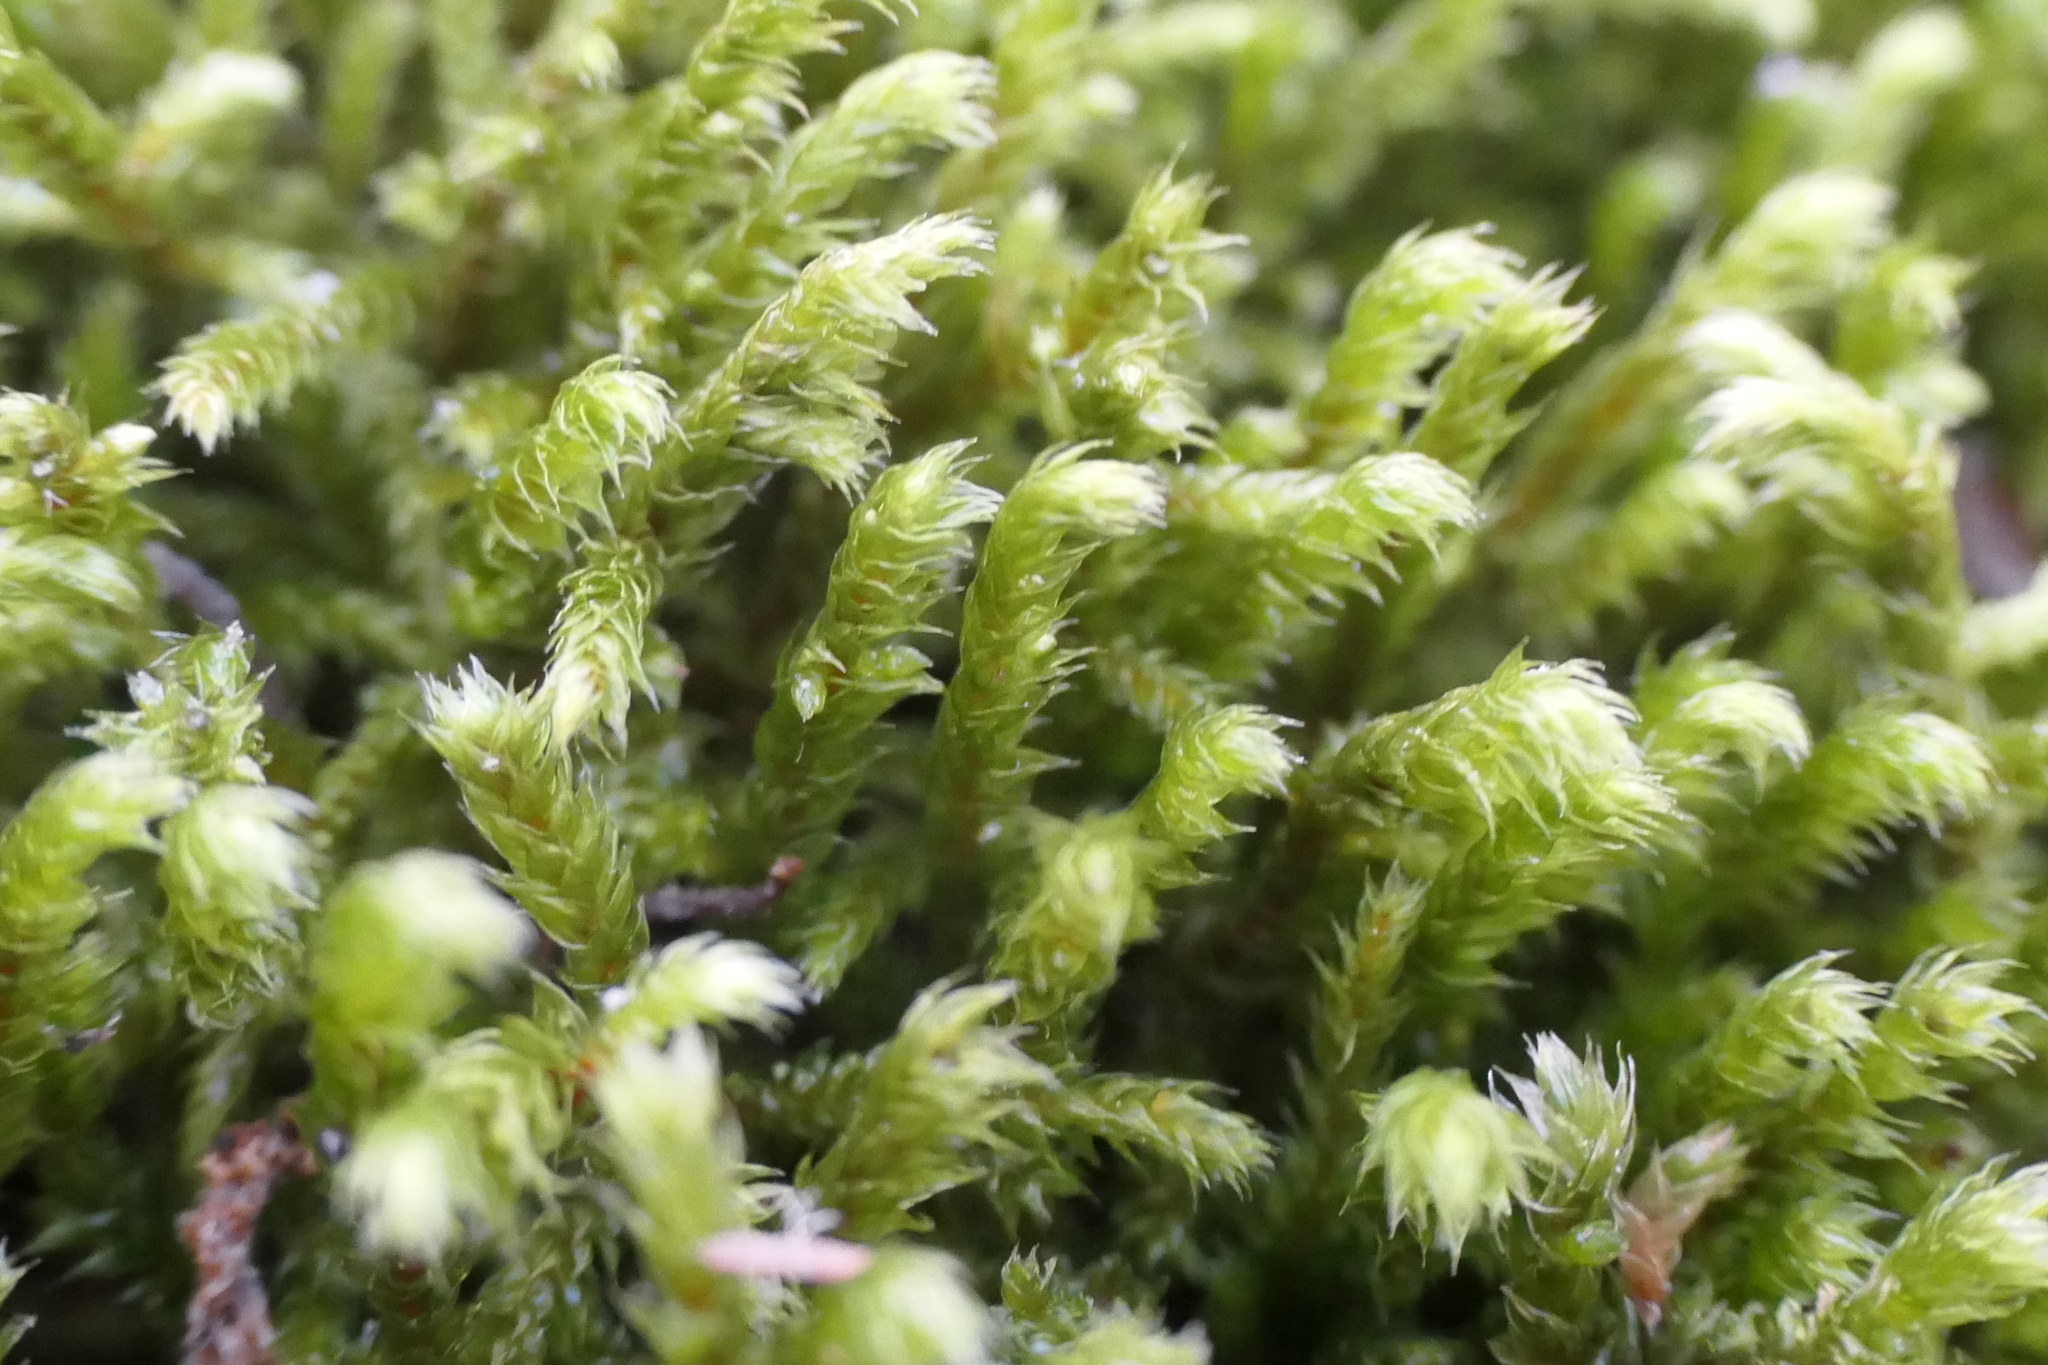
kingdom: Plantae
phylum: Bryophyta
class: Bryopsida
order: Hypnales
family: Antitrichiaceae
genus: Antitrichia
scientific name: Antitrichia curtipendula
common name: Pendulous wing-moss
